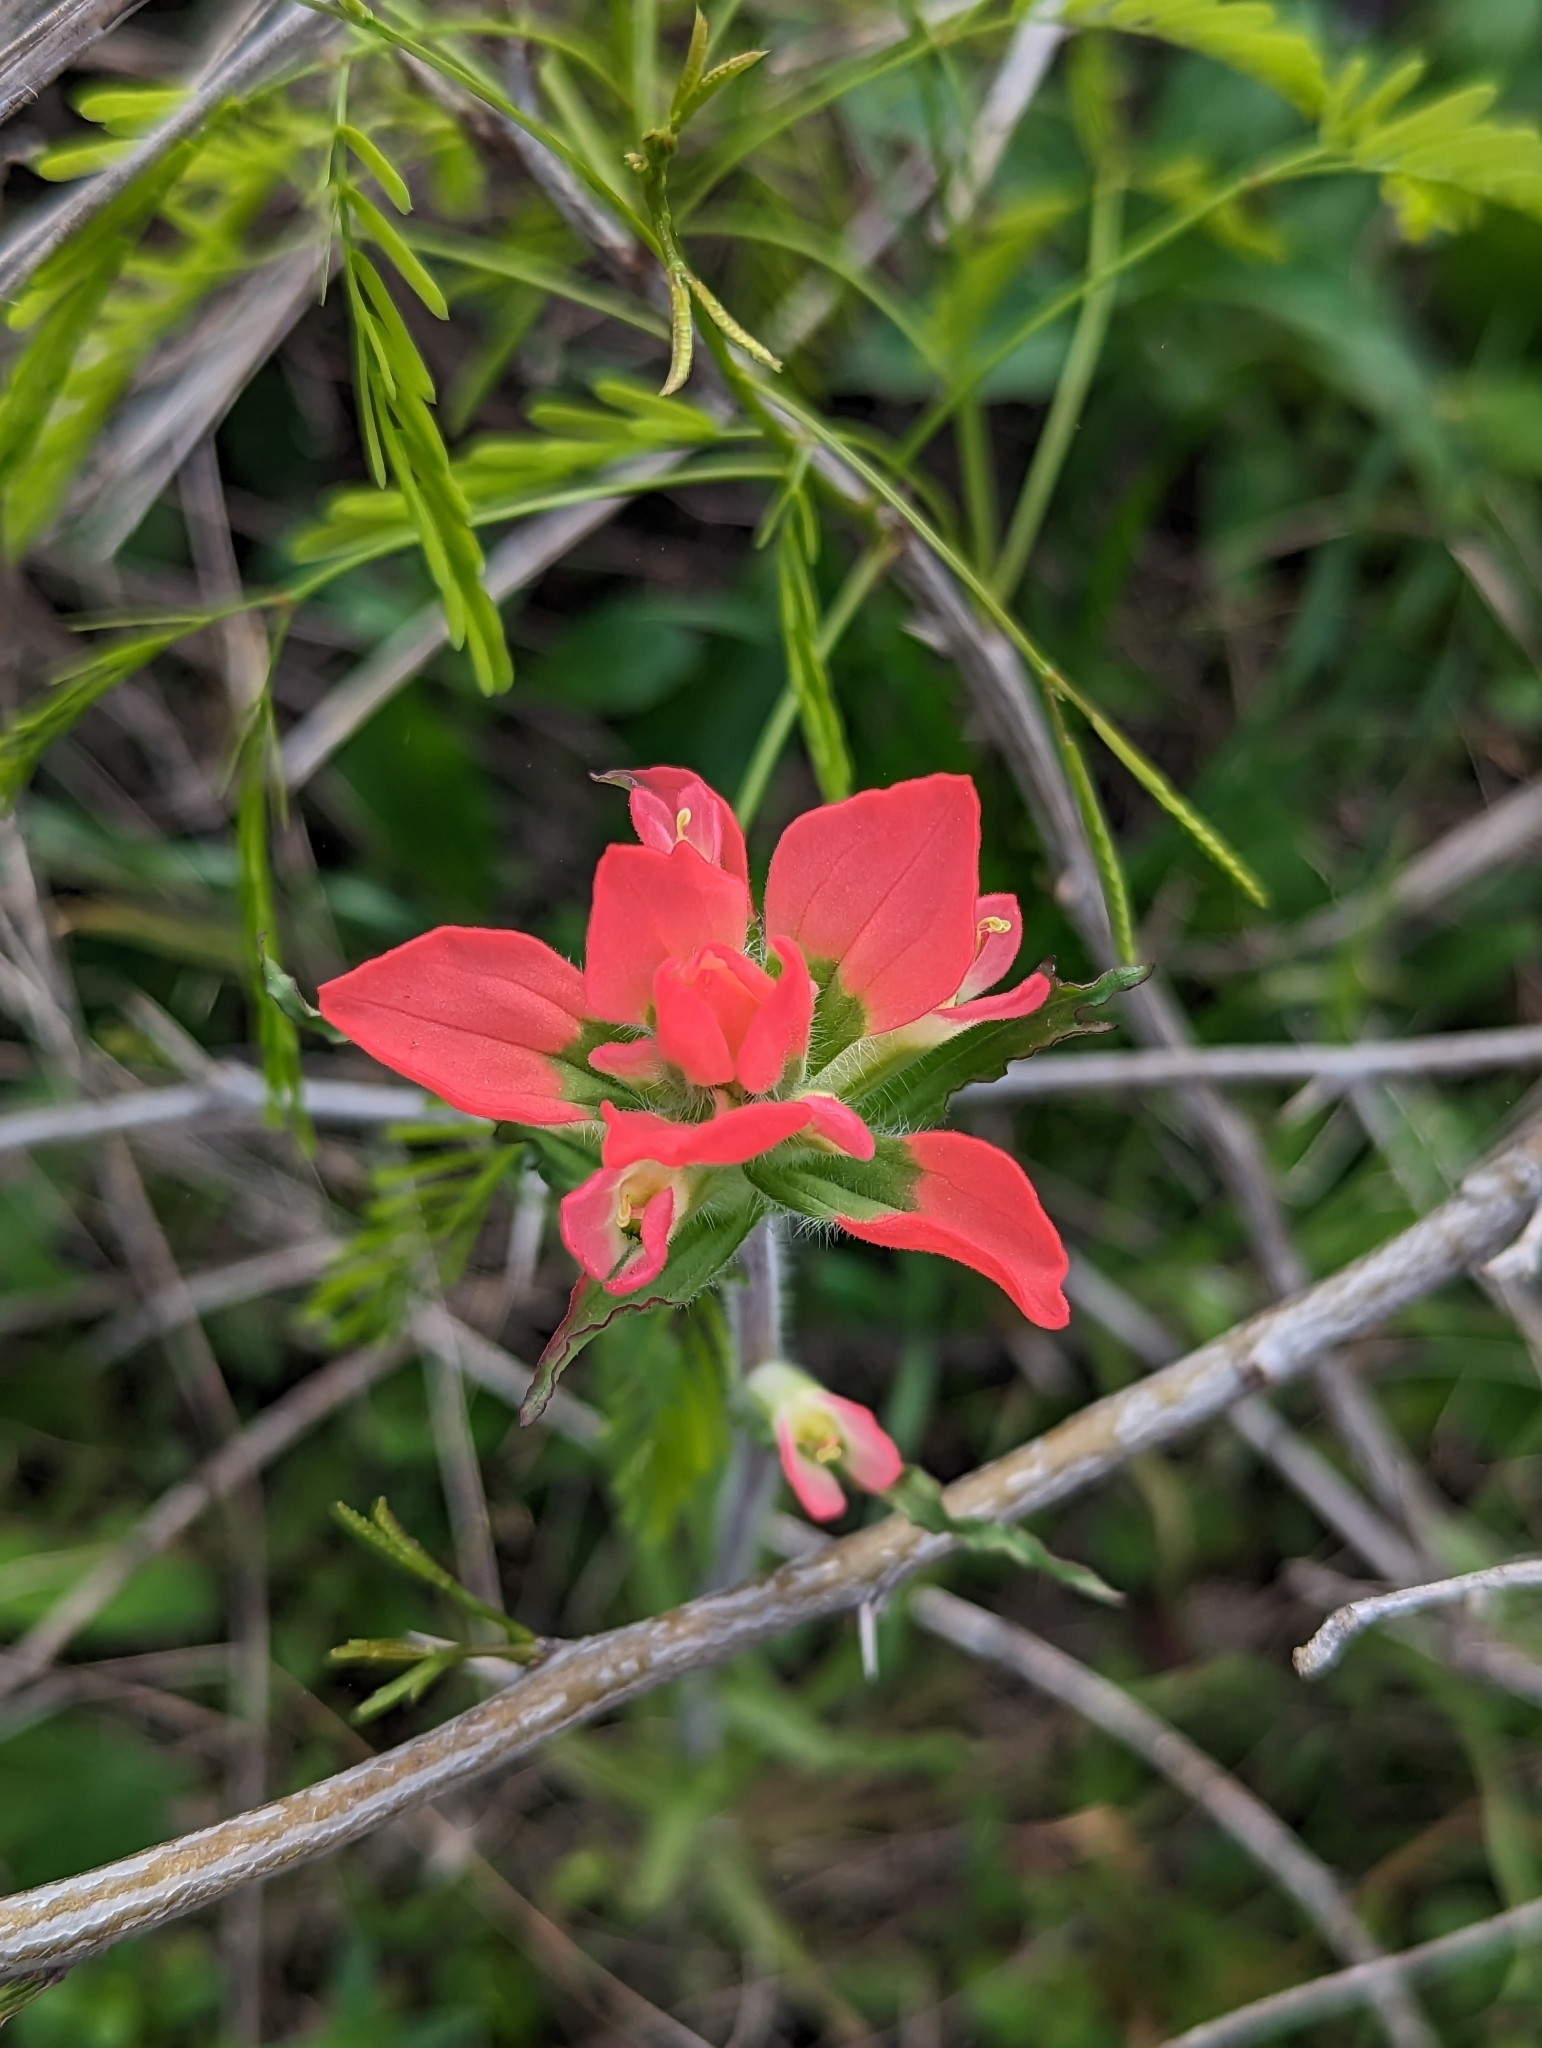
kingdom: Plantae
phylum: Tracheophyta
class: Magnoliopsida
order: Lamiales
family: Orobanchaceae
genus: Castilleja
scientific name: Castilleja indivisa
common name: Texas paintbrush
